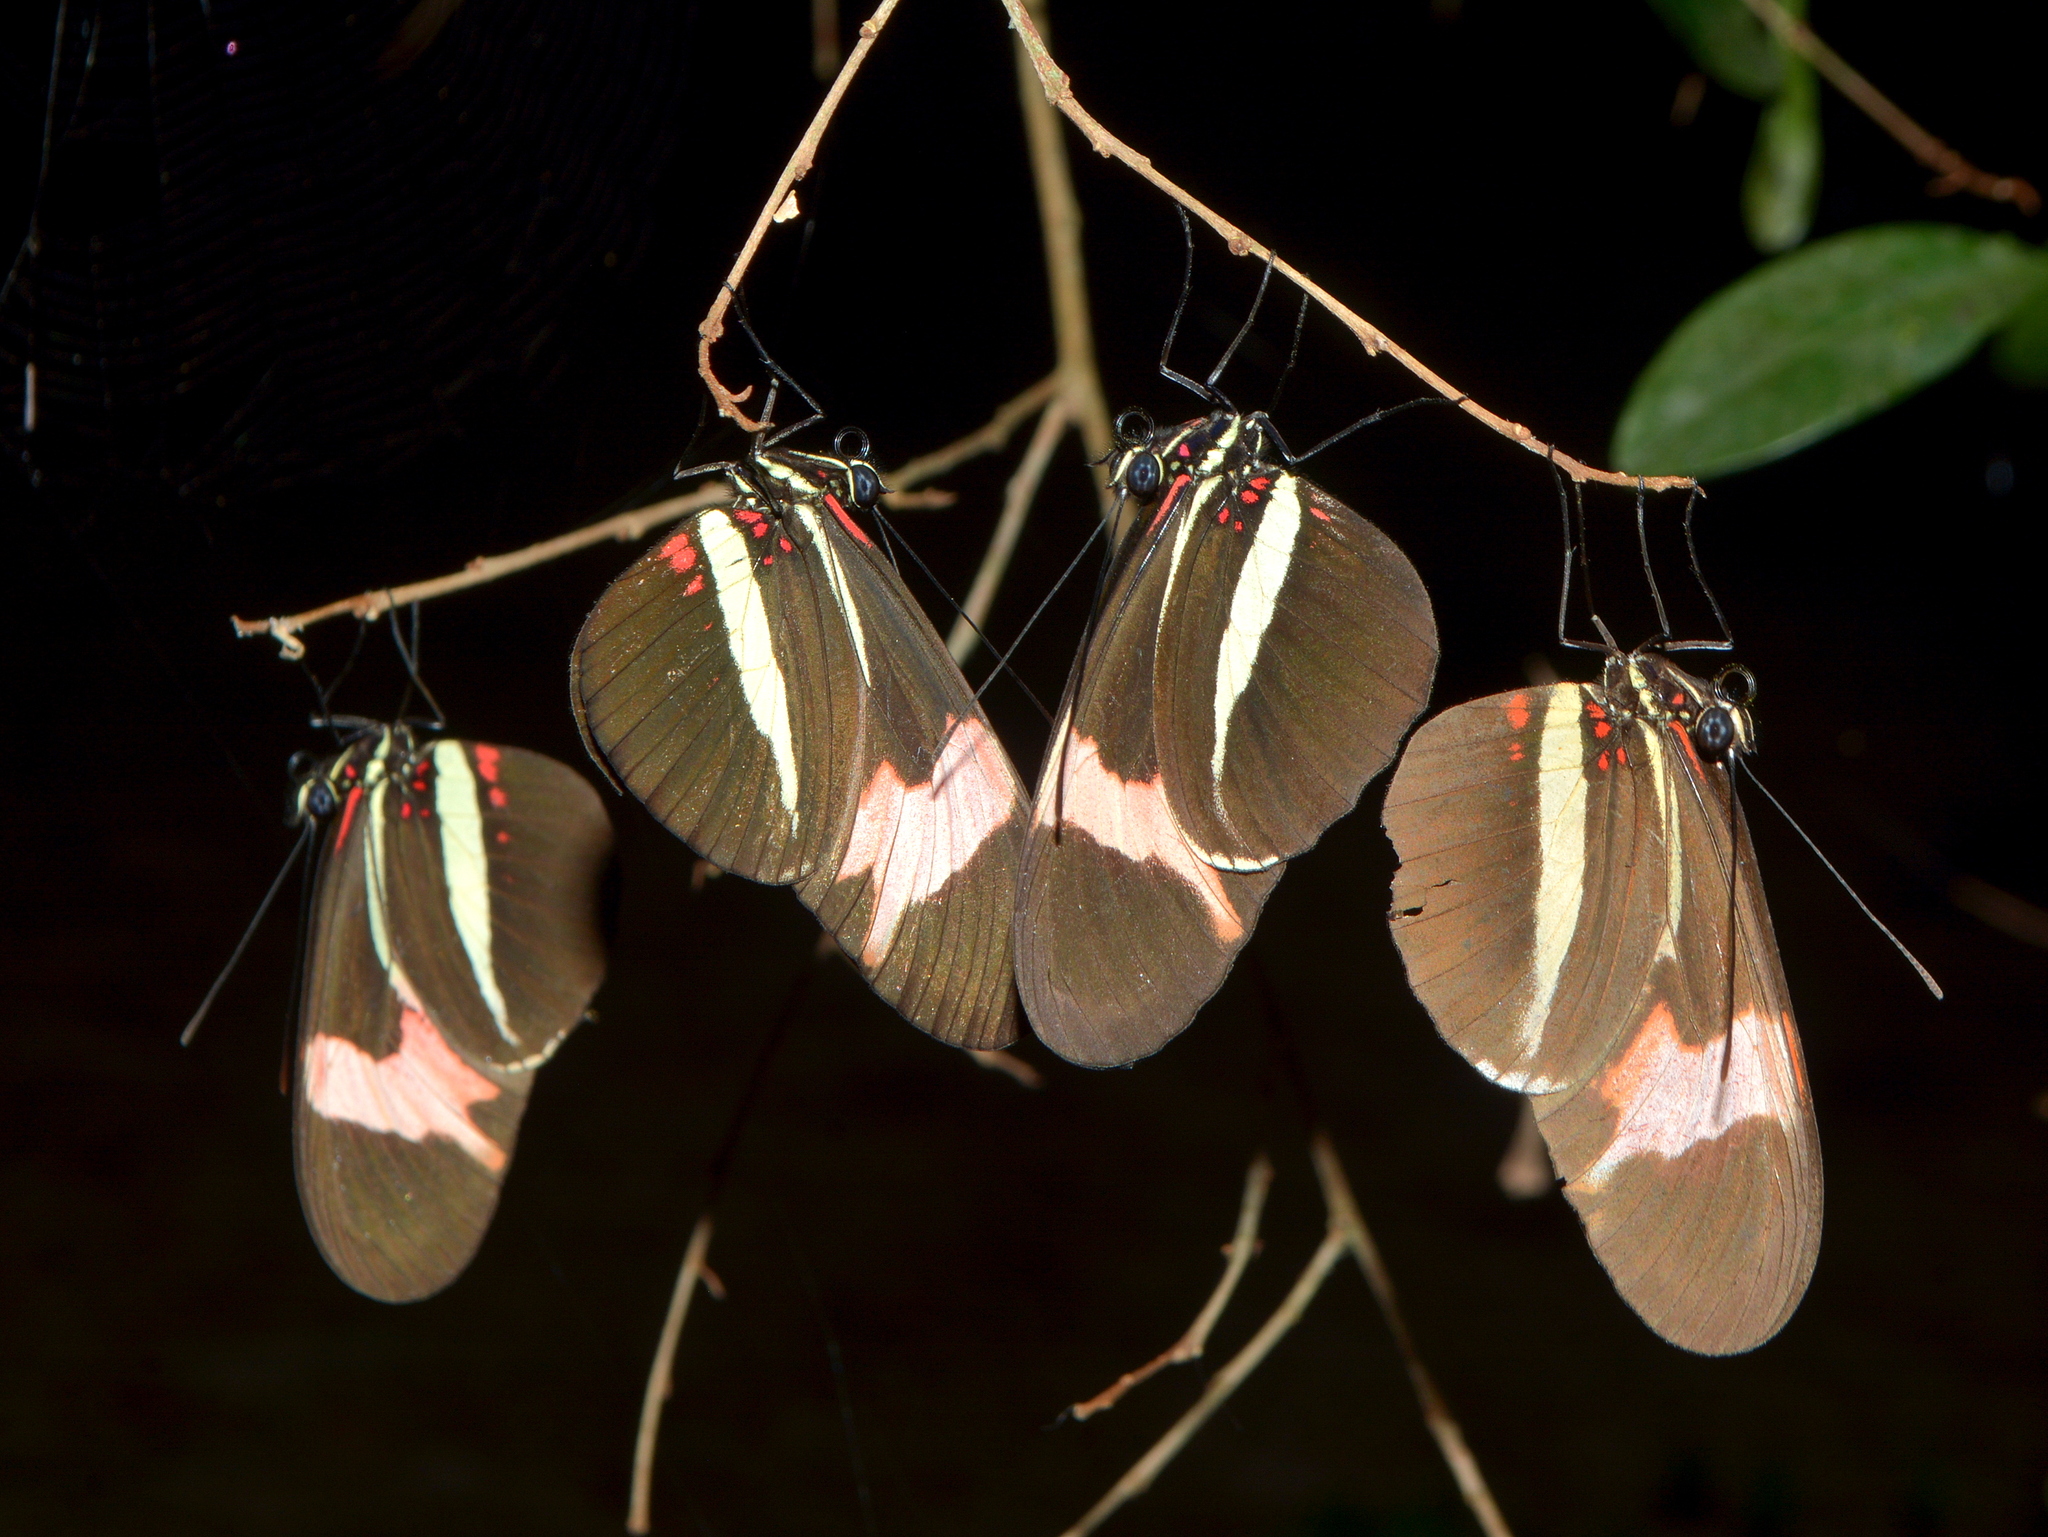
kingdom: Animalia
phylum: Arthropoda
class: Insecta
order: Lepidoptera
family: Nymphalidae
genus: Heliconius
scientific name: Heliconius erato
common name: Common patch longwing
